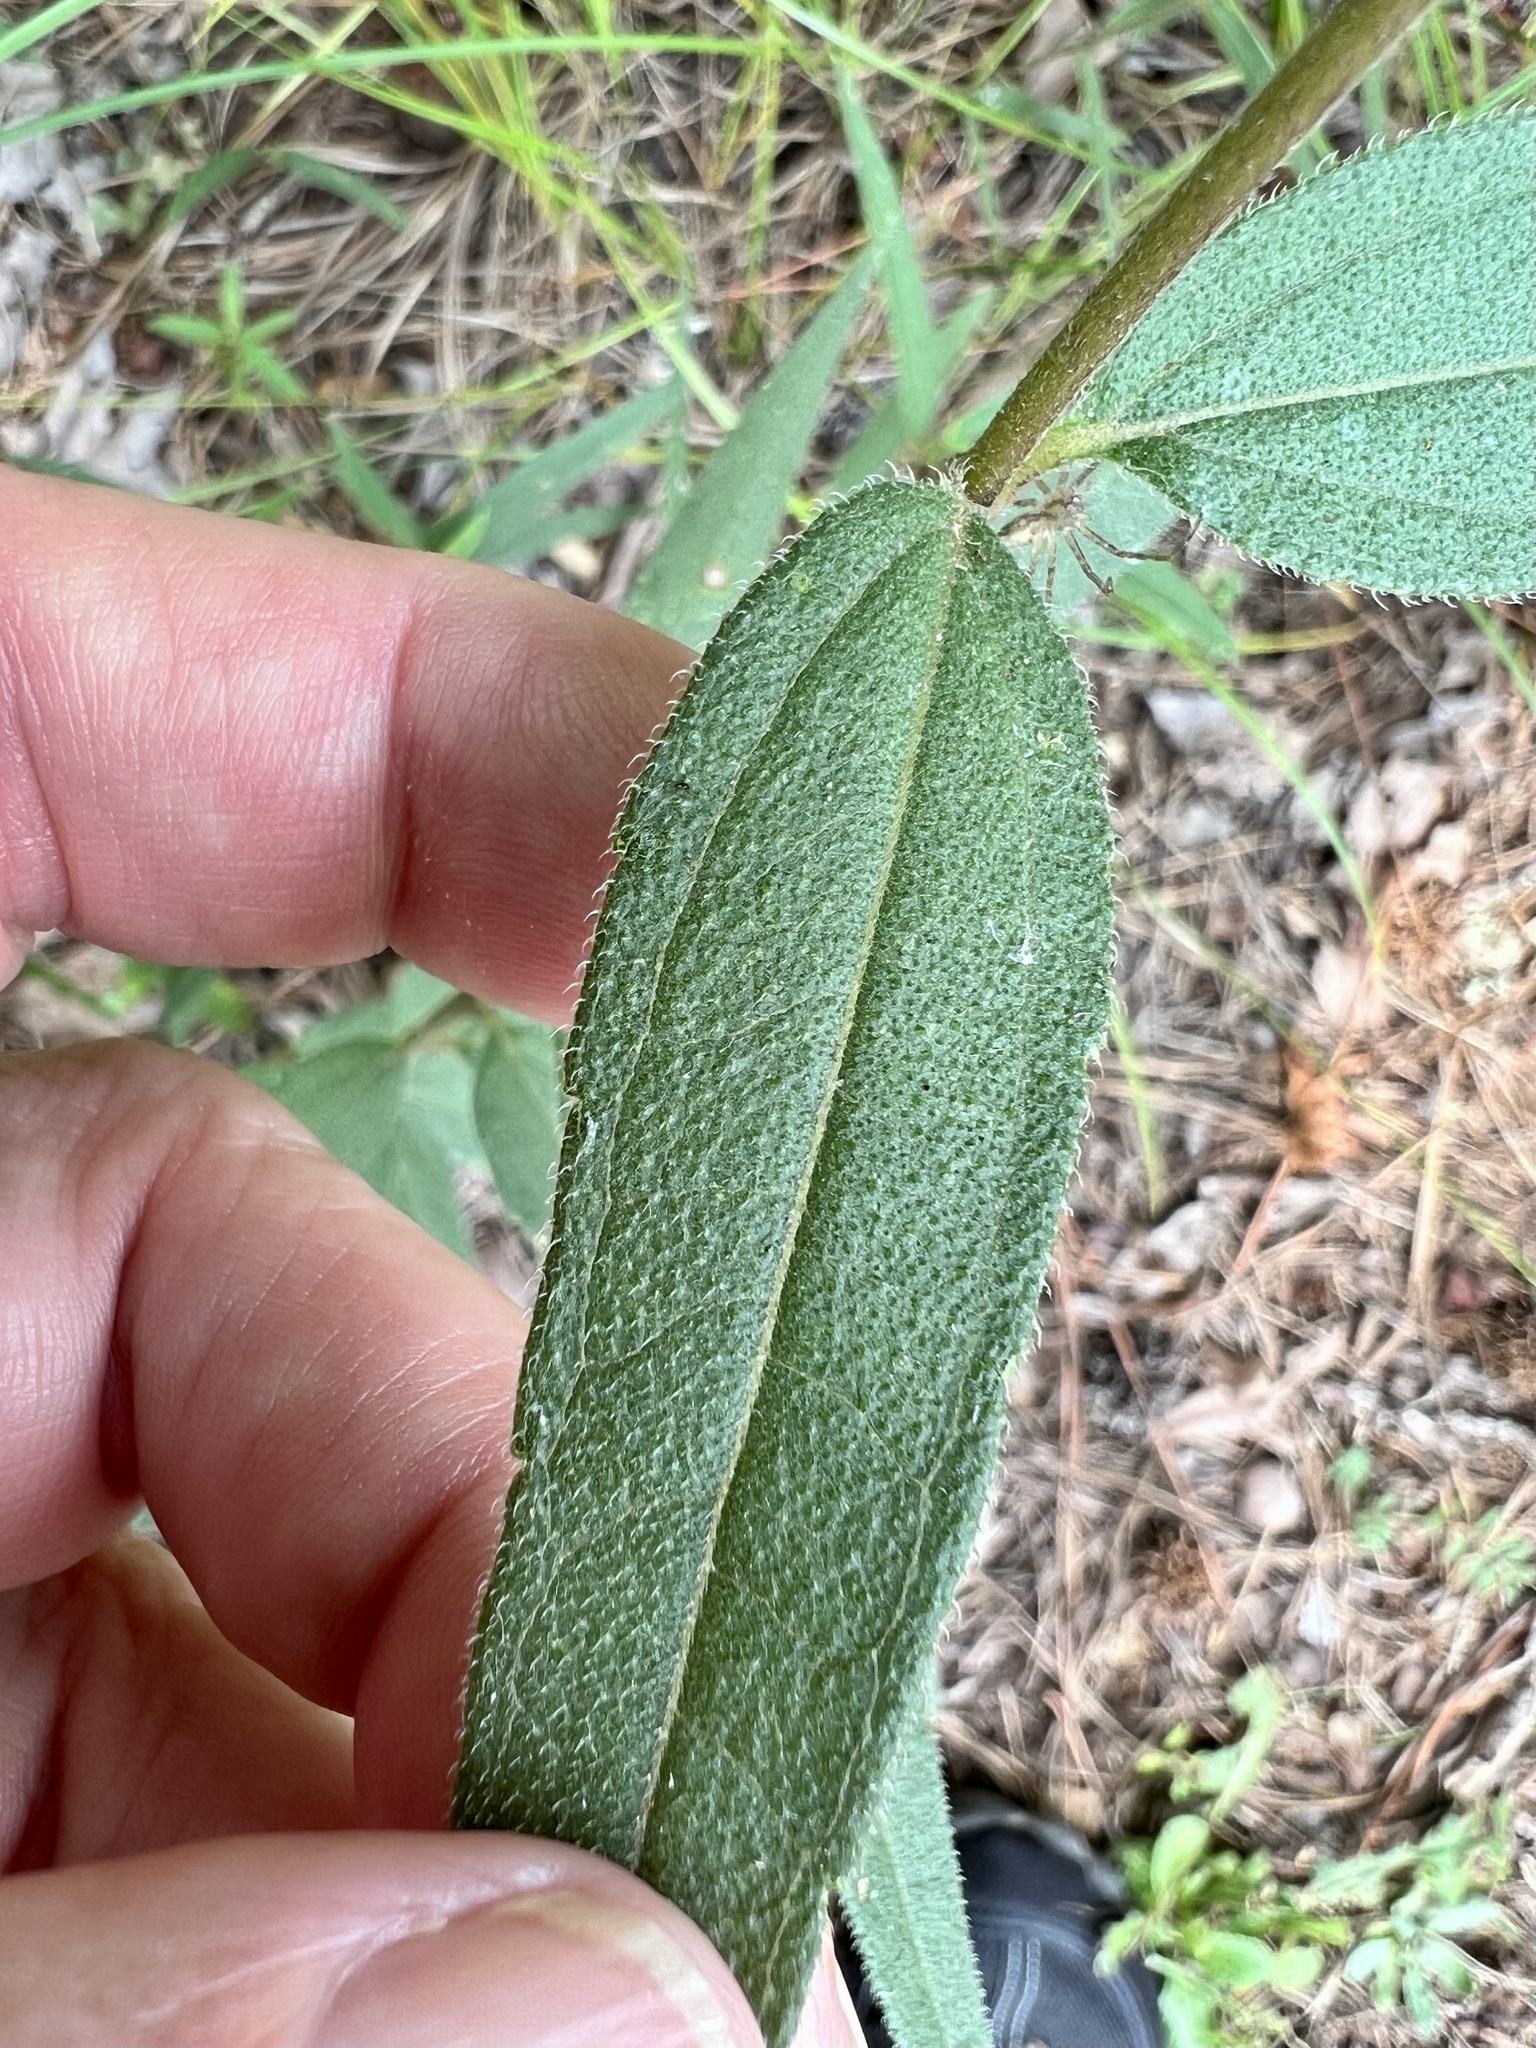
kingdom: Plantae
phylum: Tracheophyta
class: Magnoliopsida
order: Asterales
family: Asteraceae
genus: Helianthus
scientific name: Helianthus hirsutus
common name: Hairy sunflower
